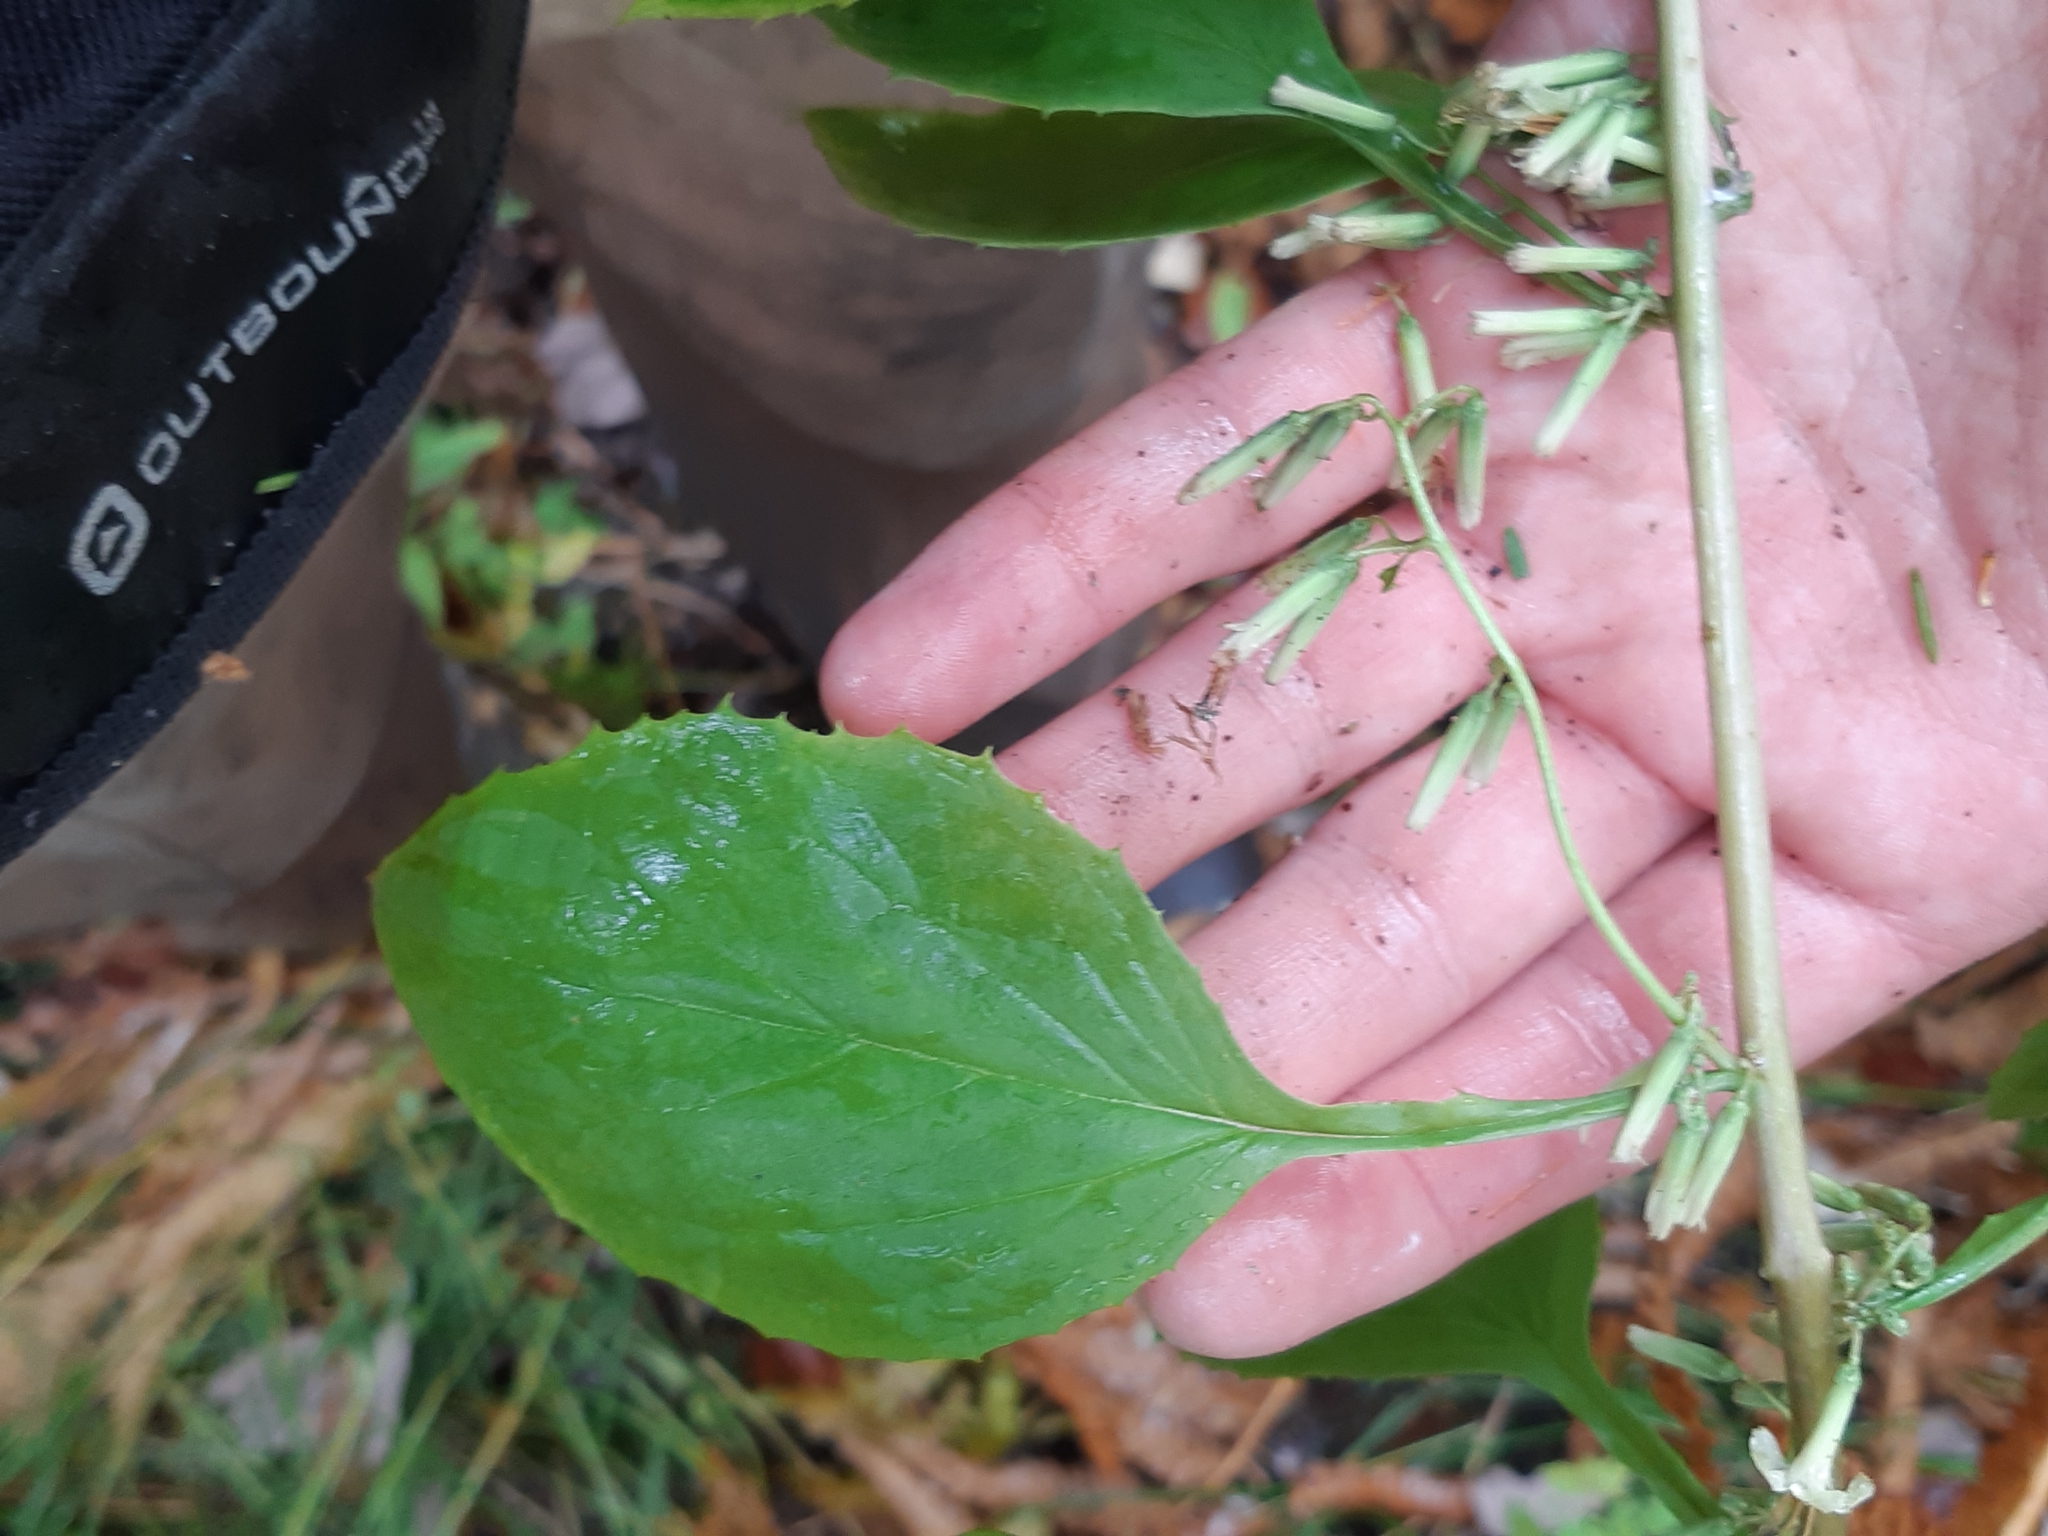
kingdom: Plantae
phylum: Tracheophyta
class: Magnoliopsida
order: Asterales
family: Asteraceae
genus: Nabalus
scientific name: Nabalus altissima
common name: Tall rattlesnakeroot
